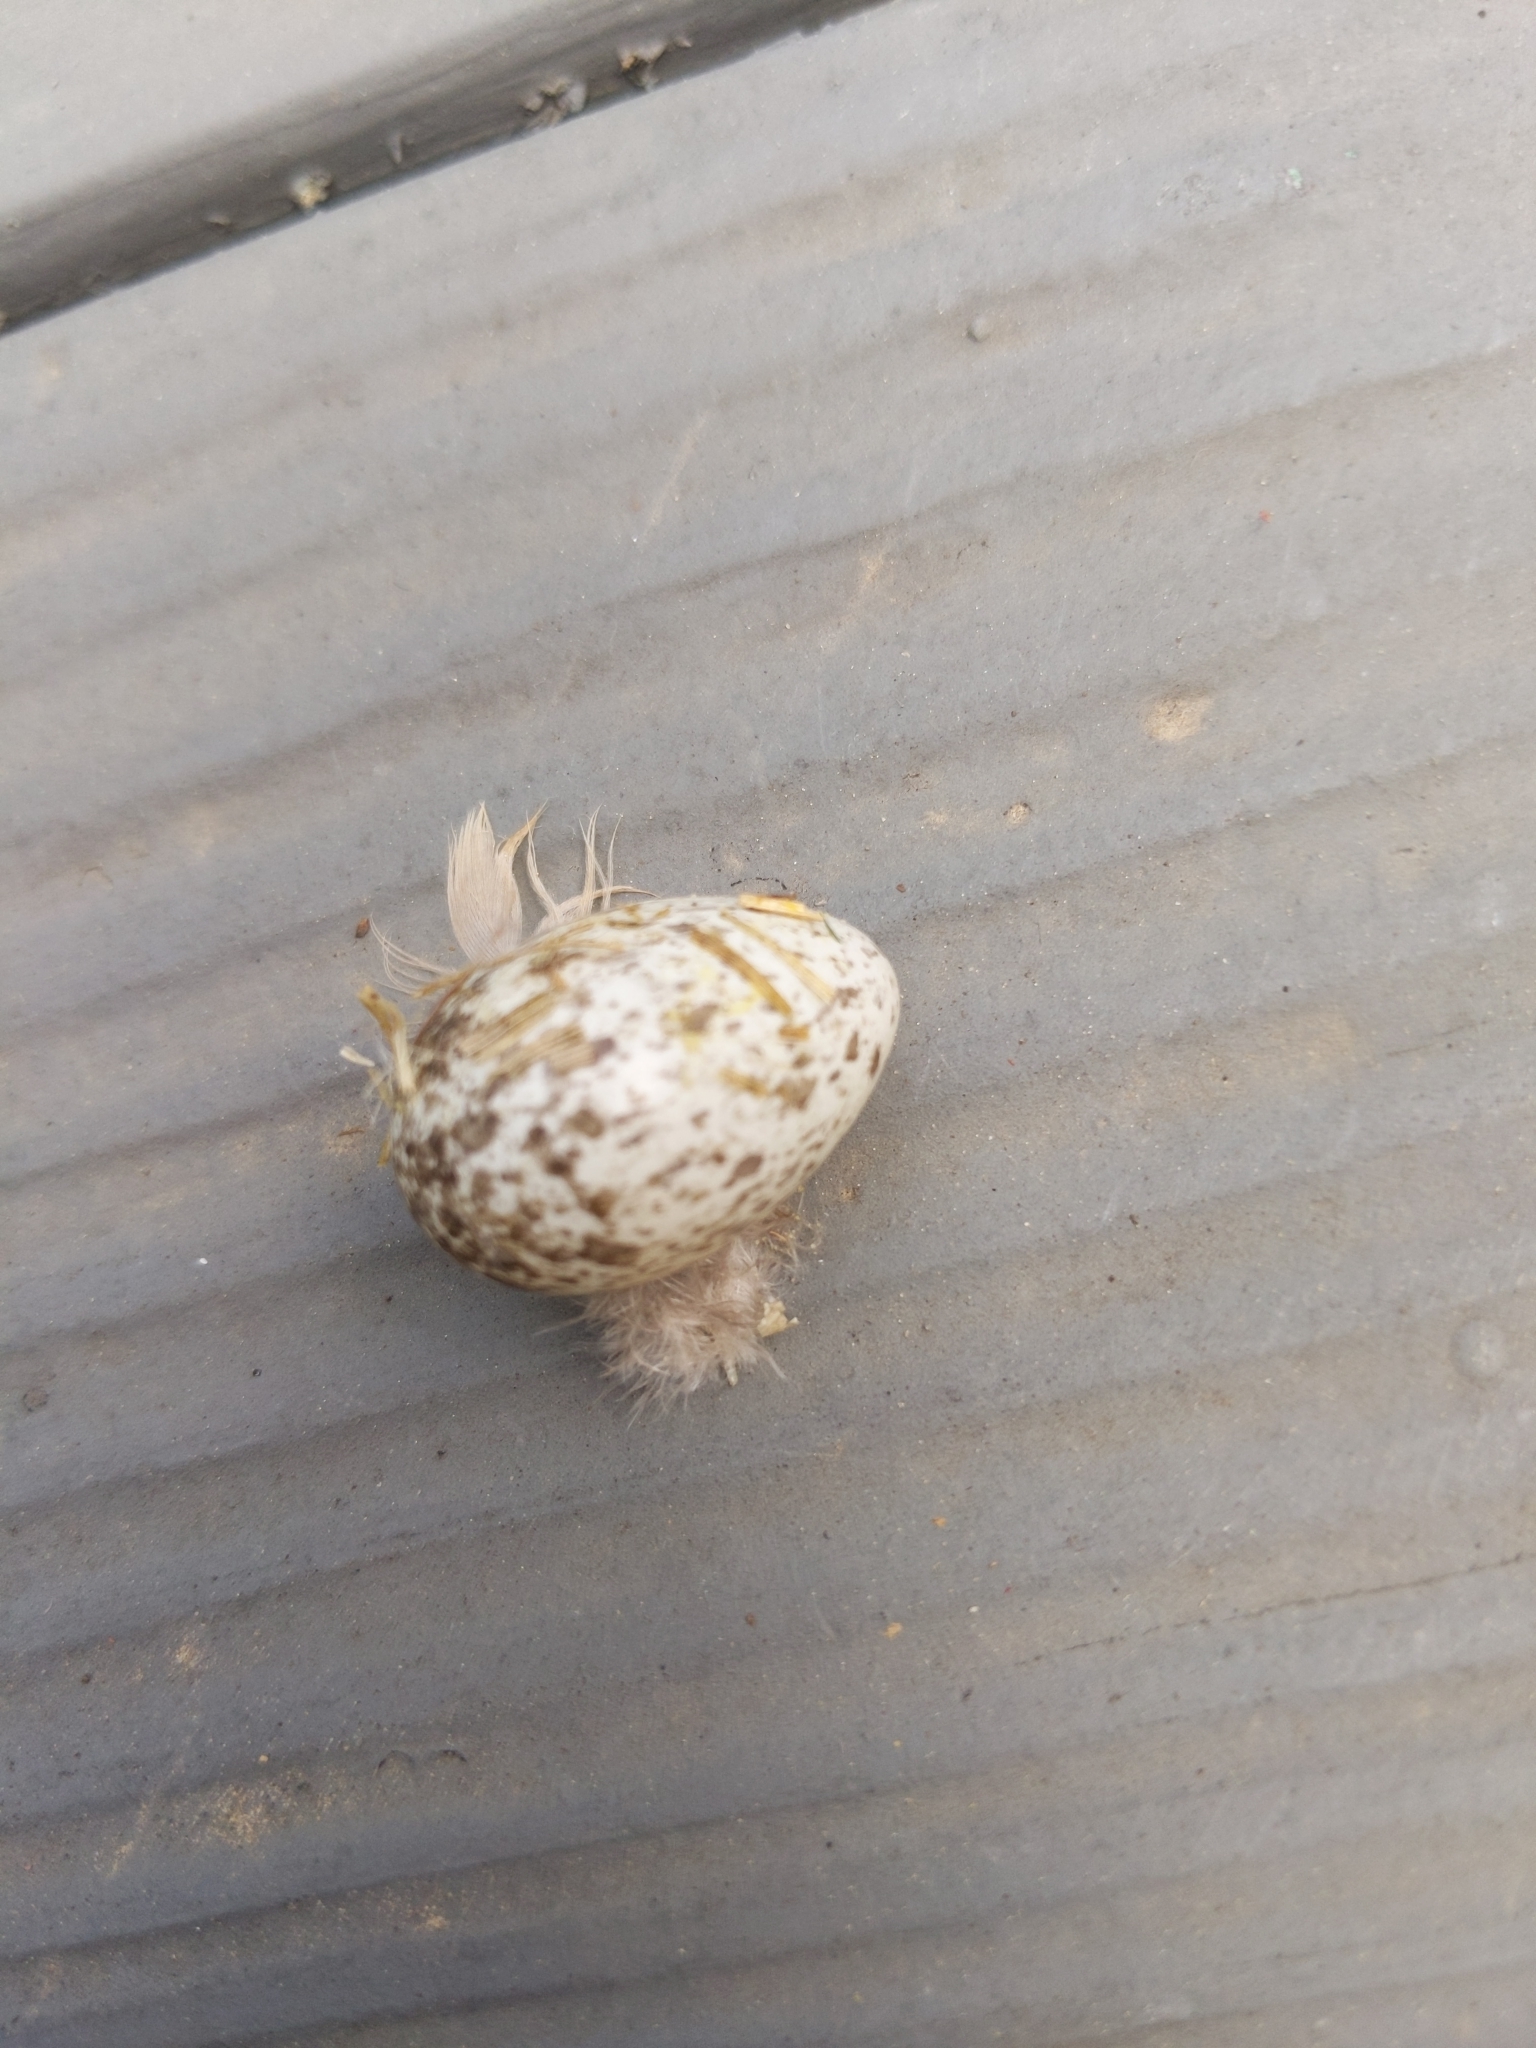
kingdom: Animalia
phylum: Chordata
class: Aves
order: Passeriformes
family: Passeridae
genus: Passer
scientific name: Passer domesticus
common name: House sparrow
